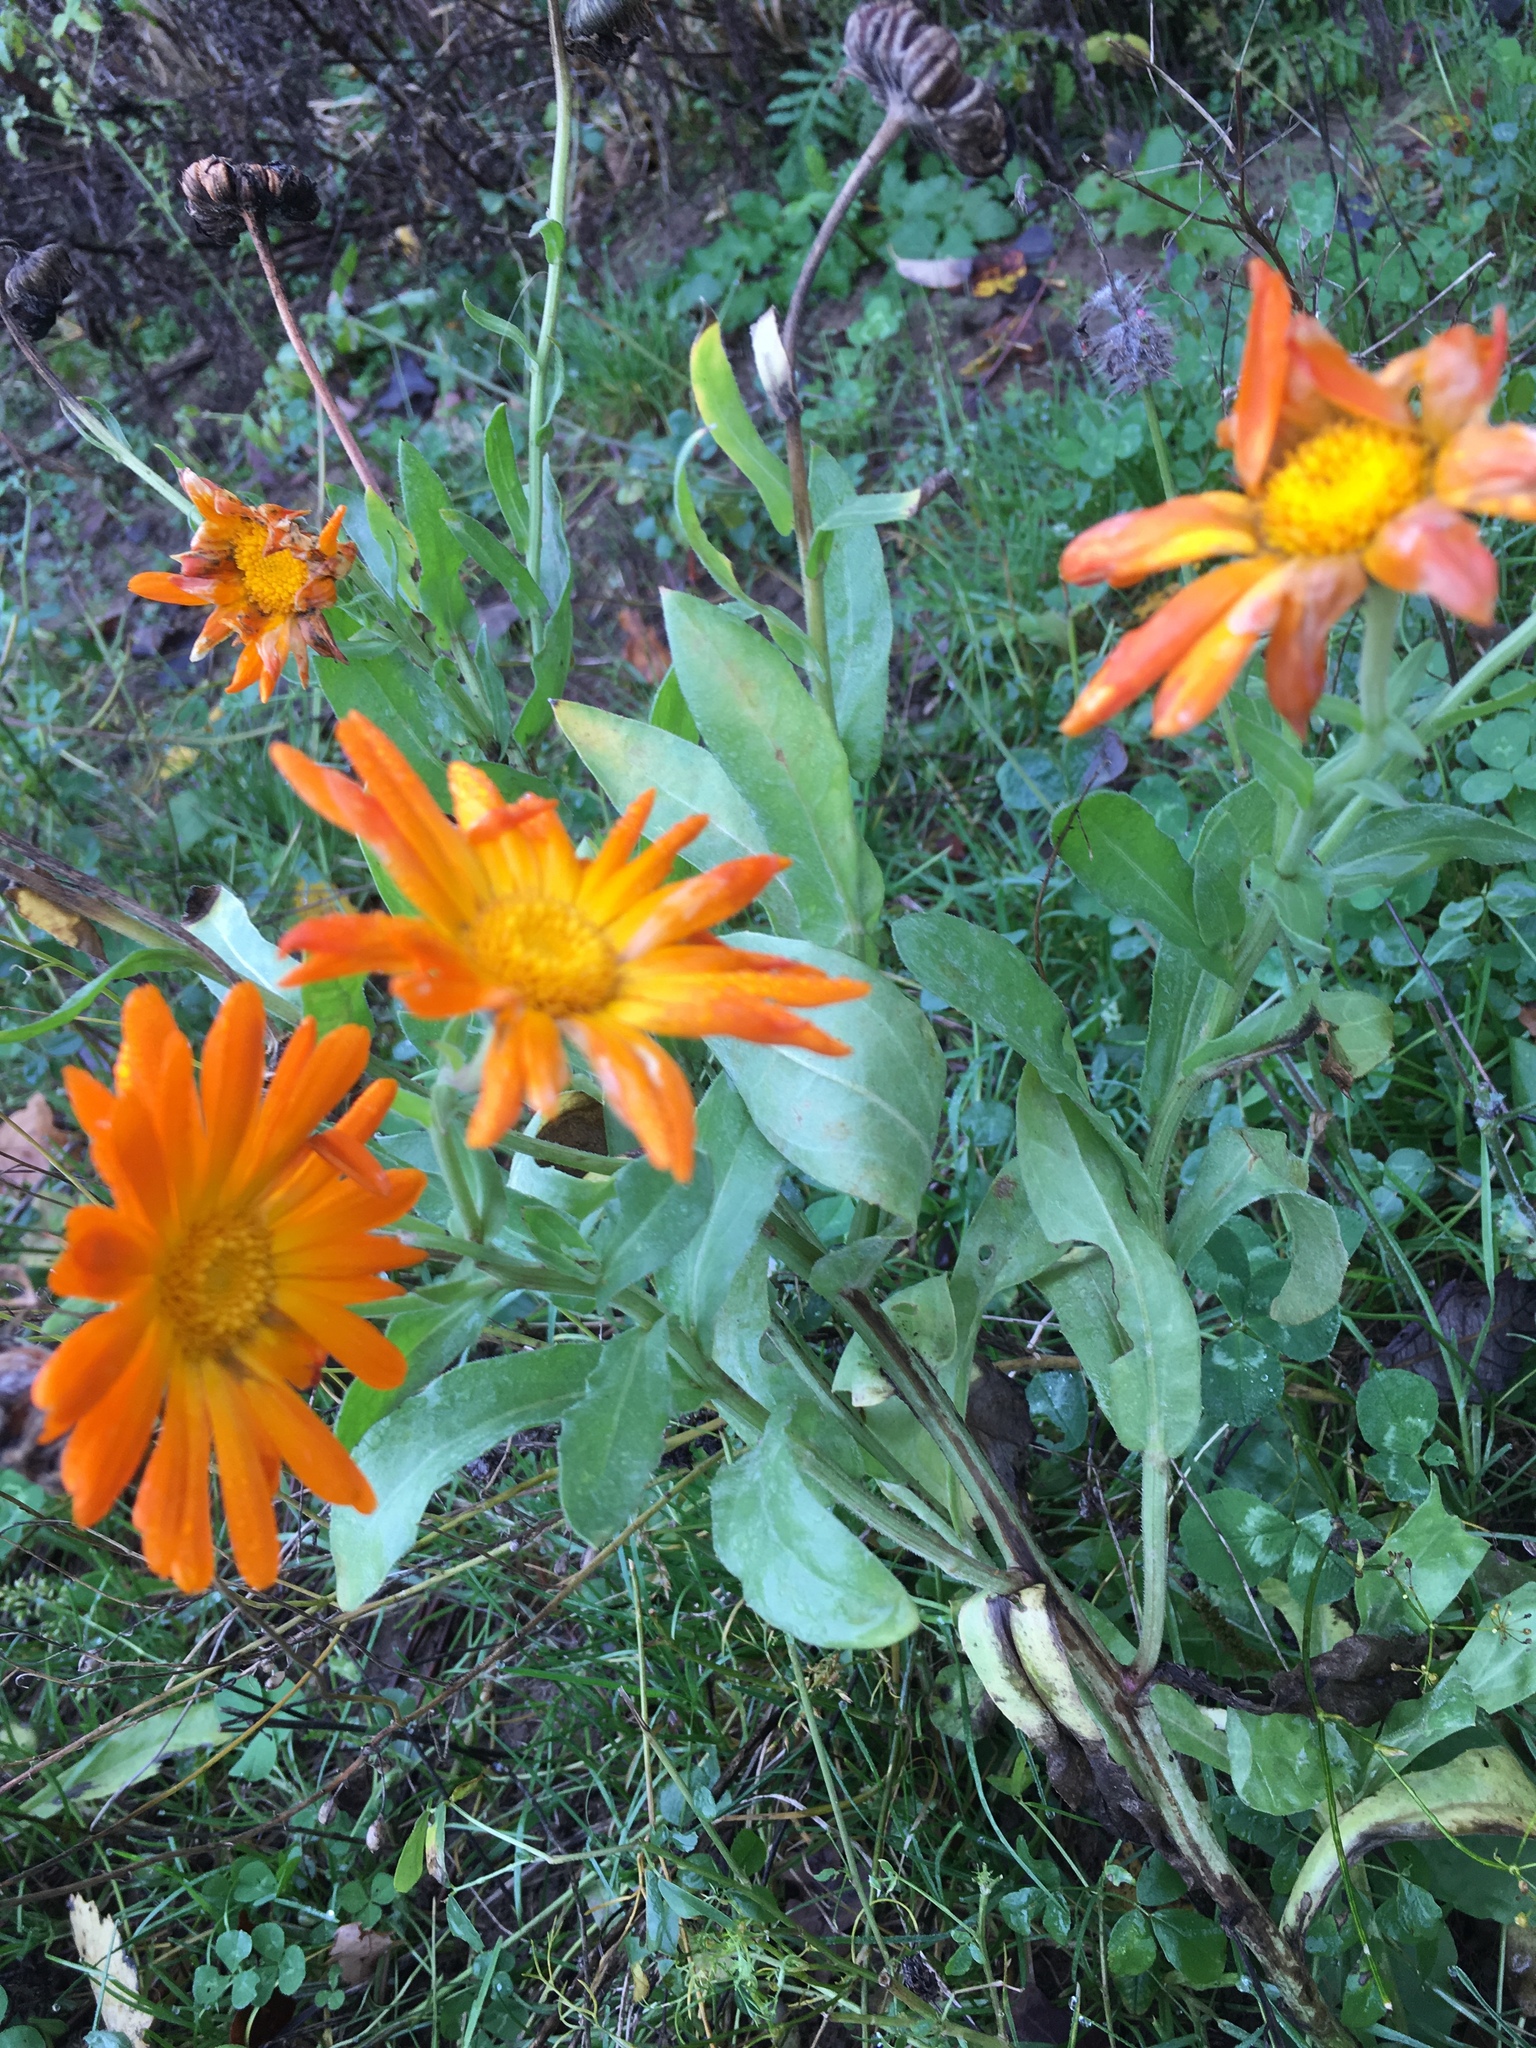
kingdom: Plantae
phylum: Tracheophyta
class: Magnoliopsida
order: Asterales
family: Asteraceae
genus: Calendula
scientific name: Calendula officinalis
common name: Pot marigold
